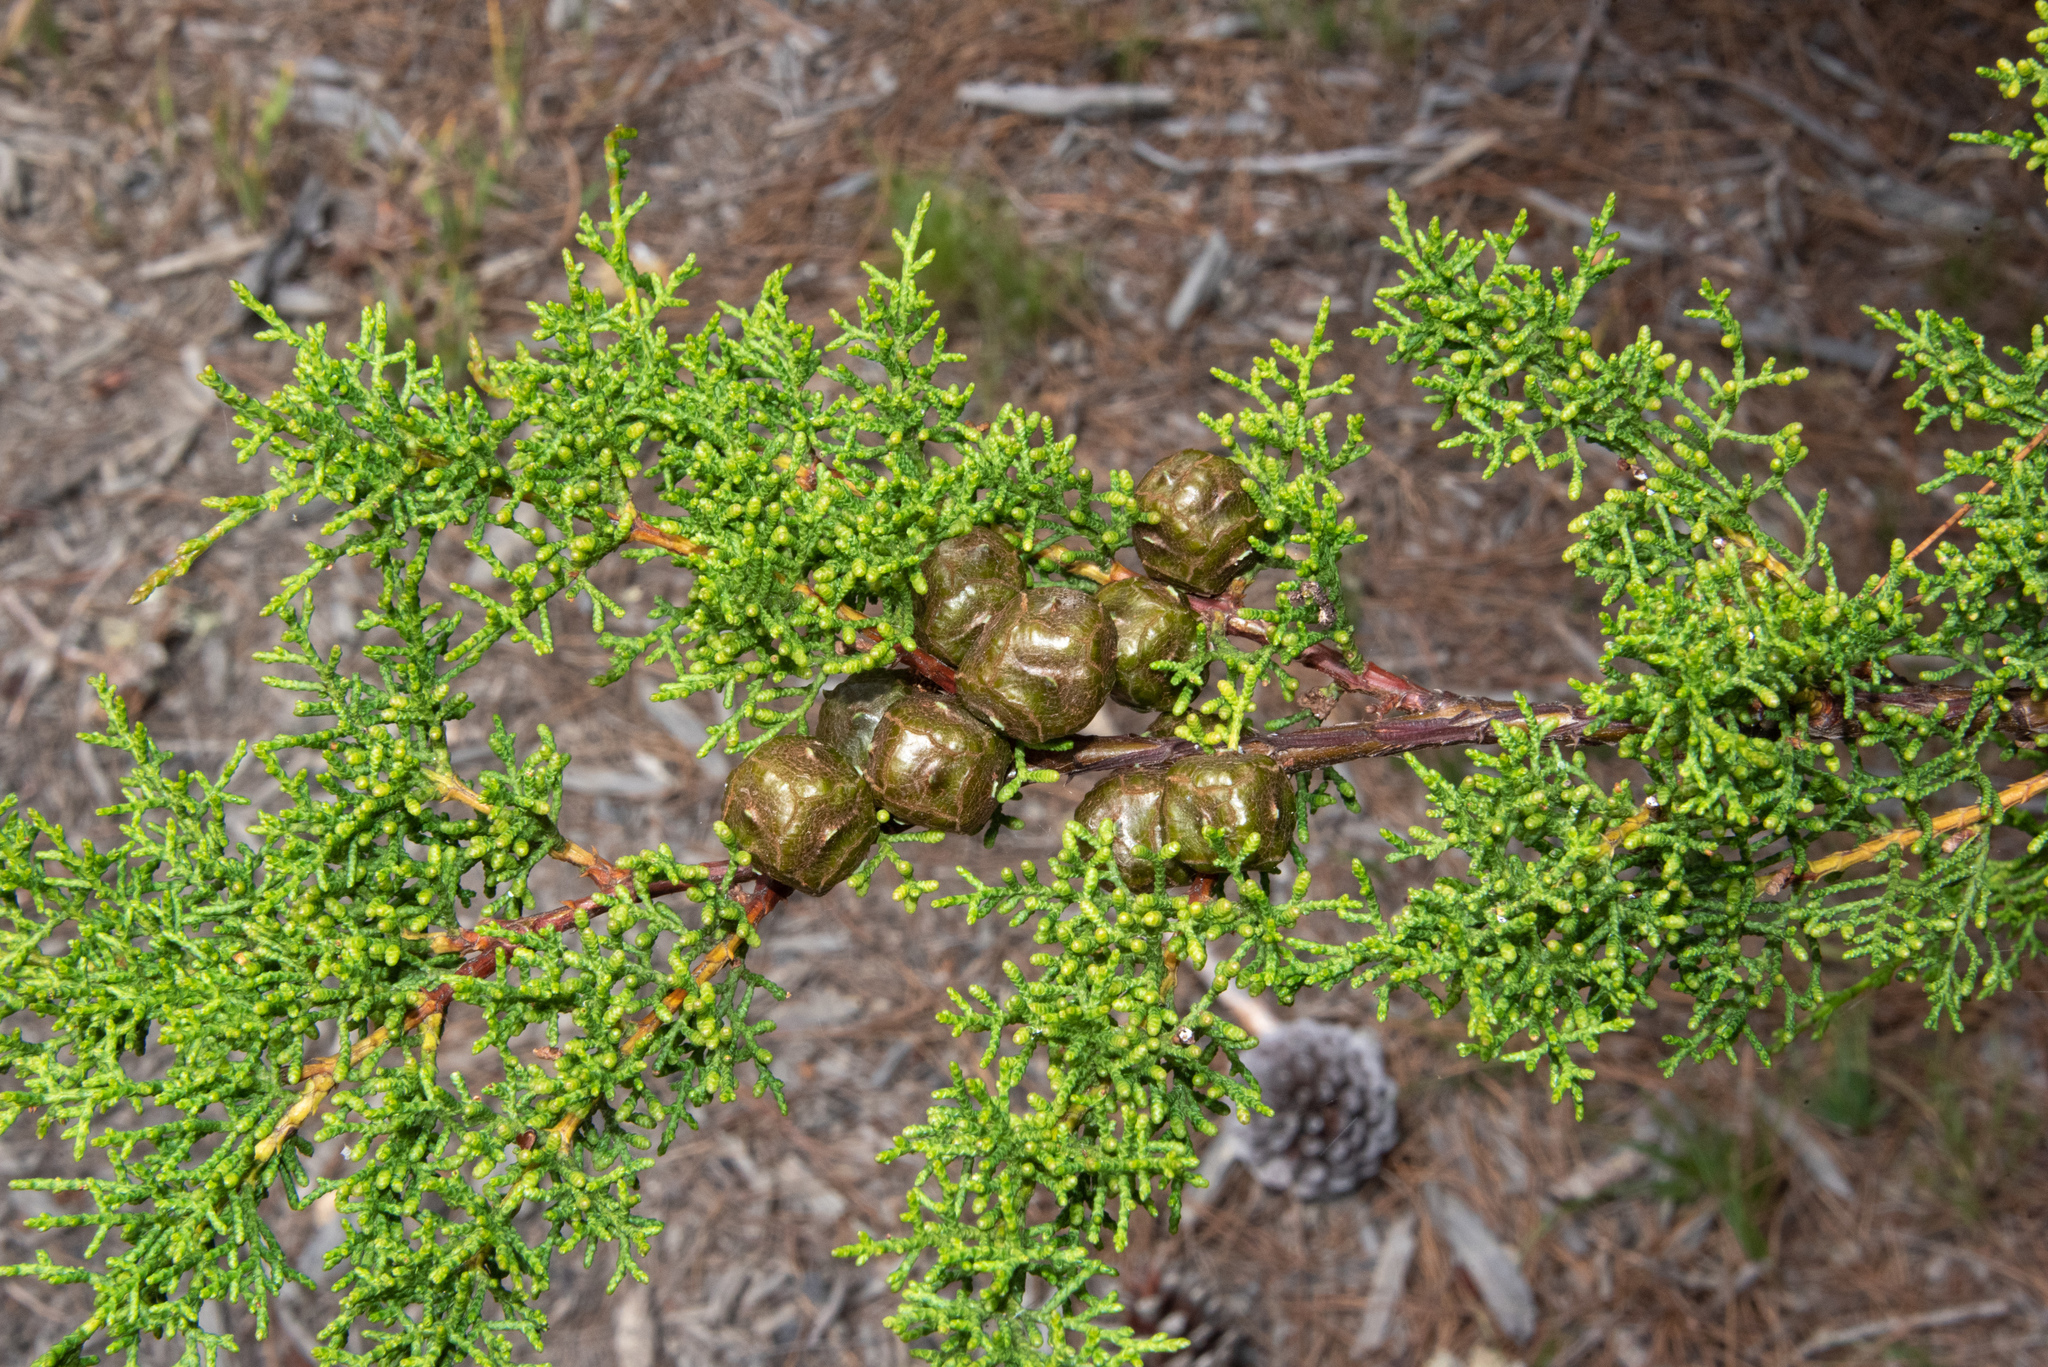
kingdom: Plantae
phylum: Tracheophyta
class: Pinopsida
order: Pinales
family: Cupressaceae
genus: Cupressus
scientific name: Cupressus goveniana
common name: Gowen cypress
